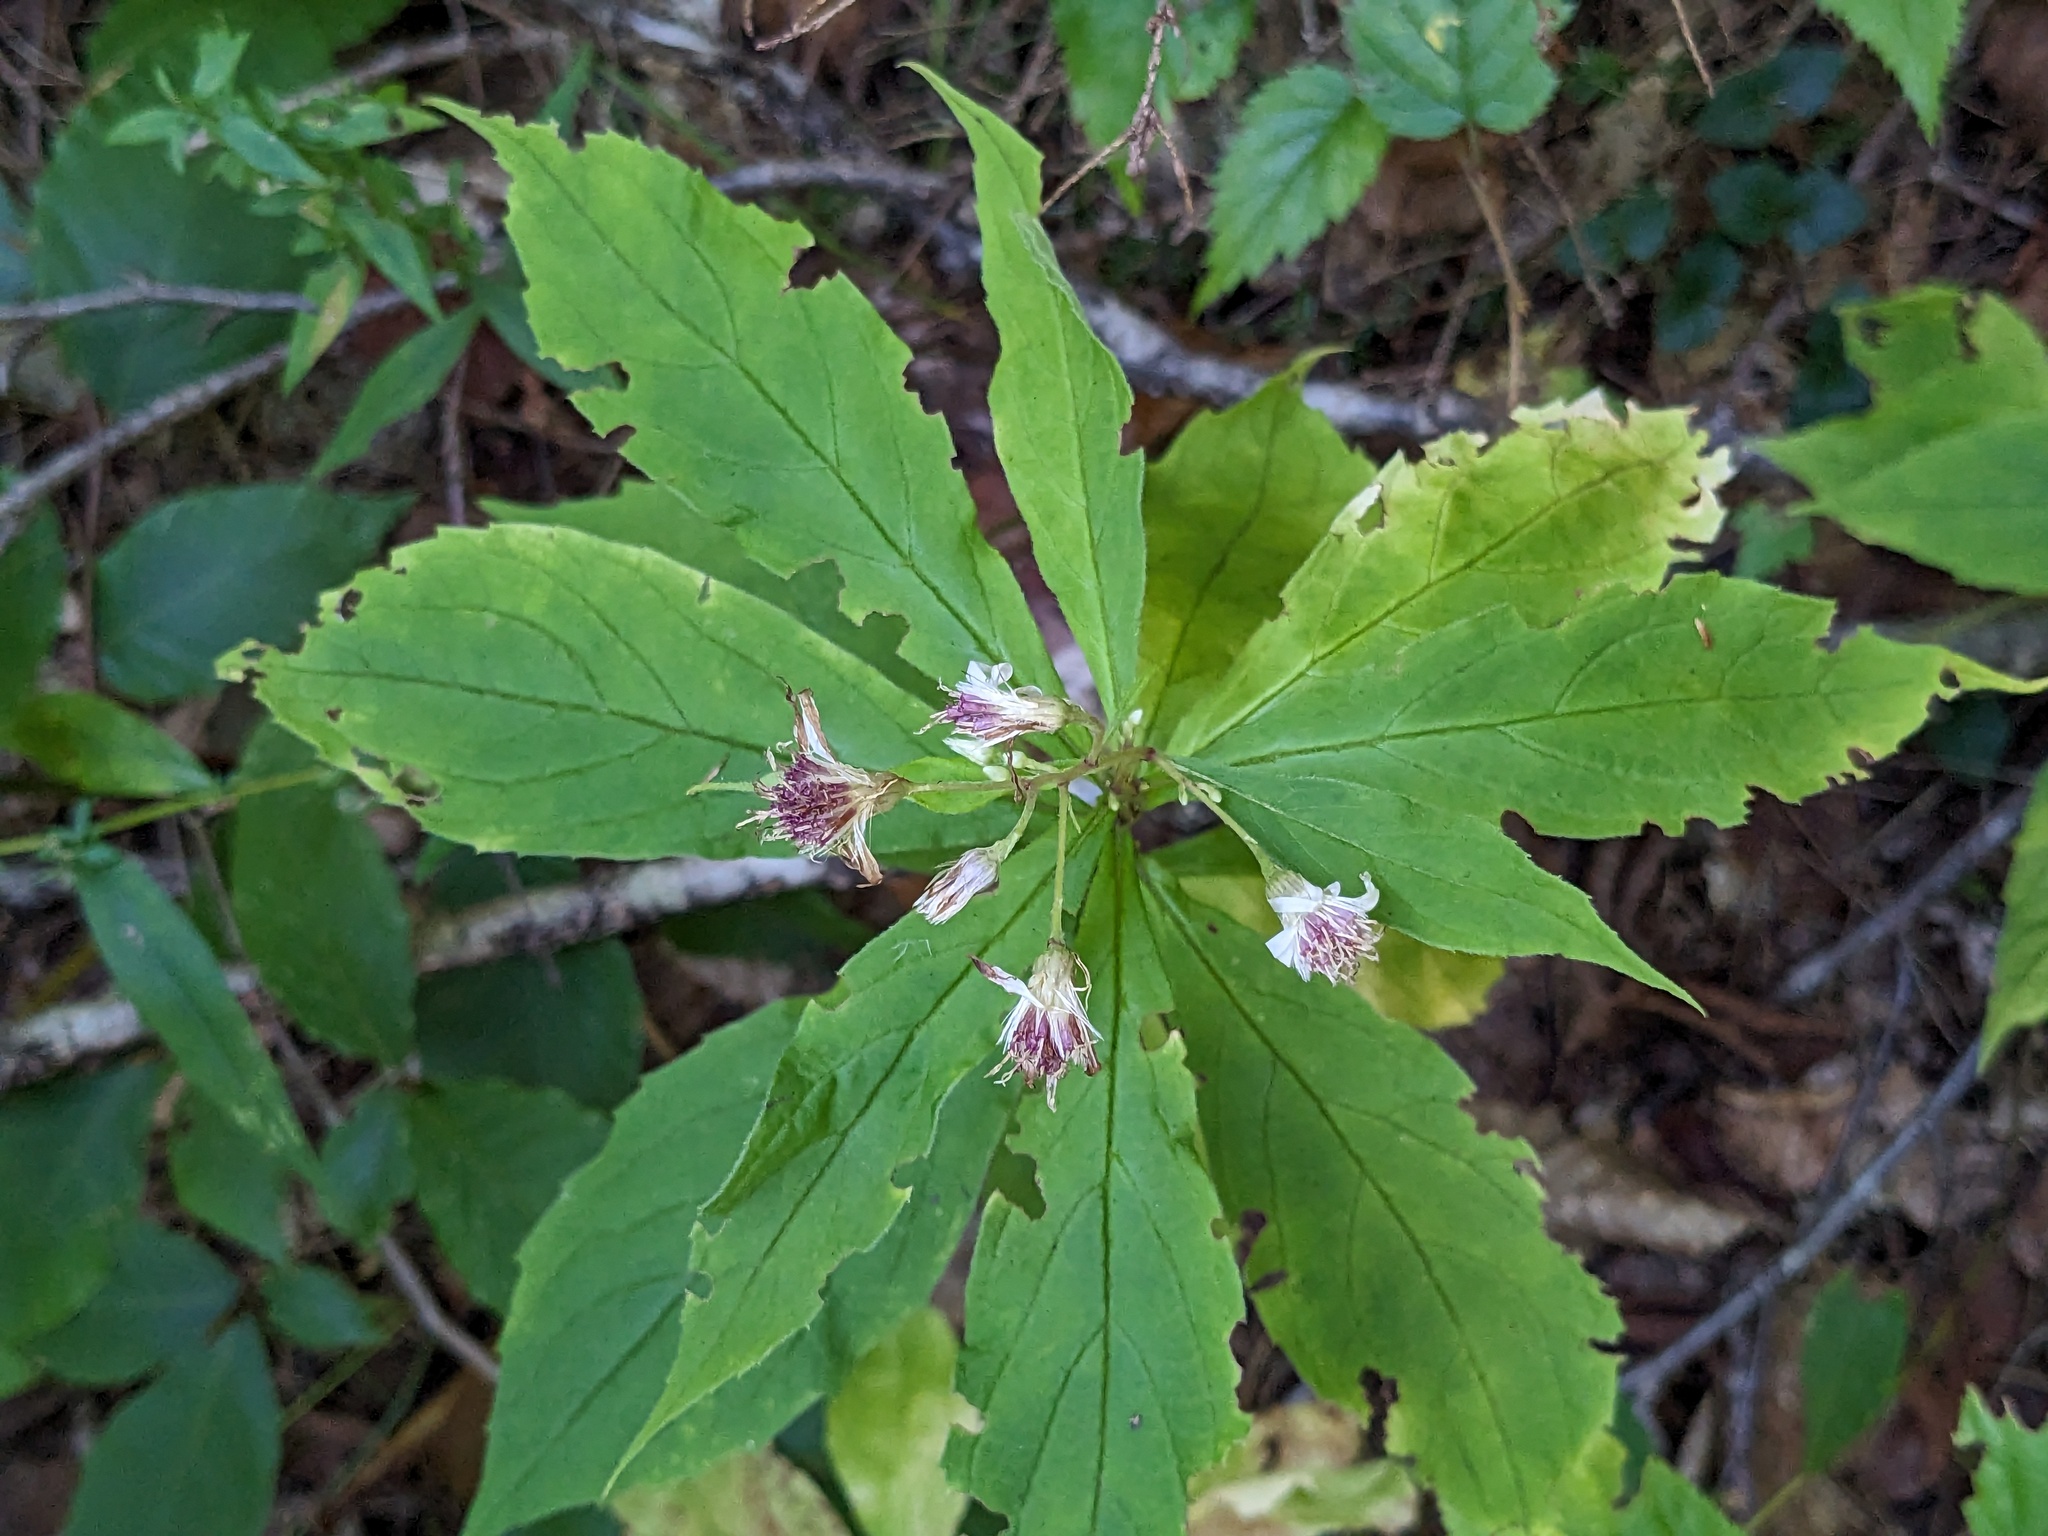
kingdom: Plantae
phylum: Tracheophyta
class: Magnoliopsida
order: Asterales
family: Asteraceae
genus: Oclemena
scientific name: Oclemena acuminata
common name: Mountain aster
